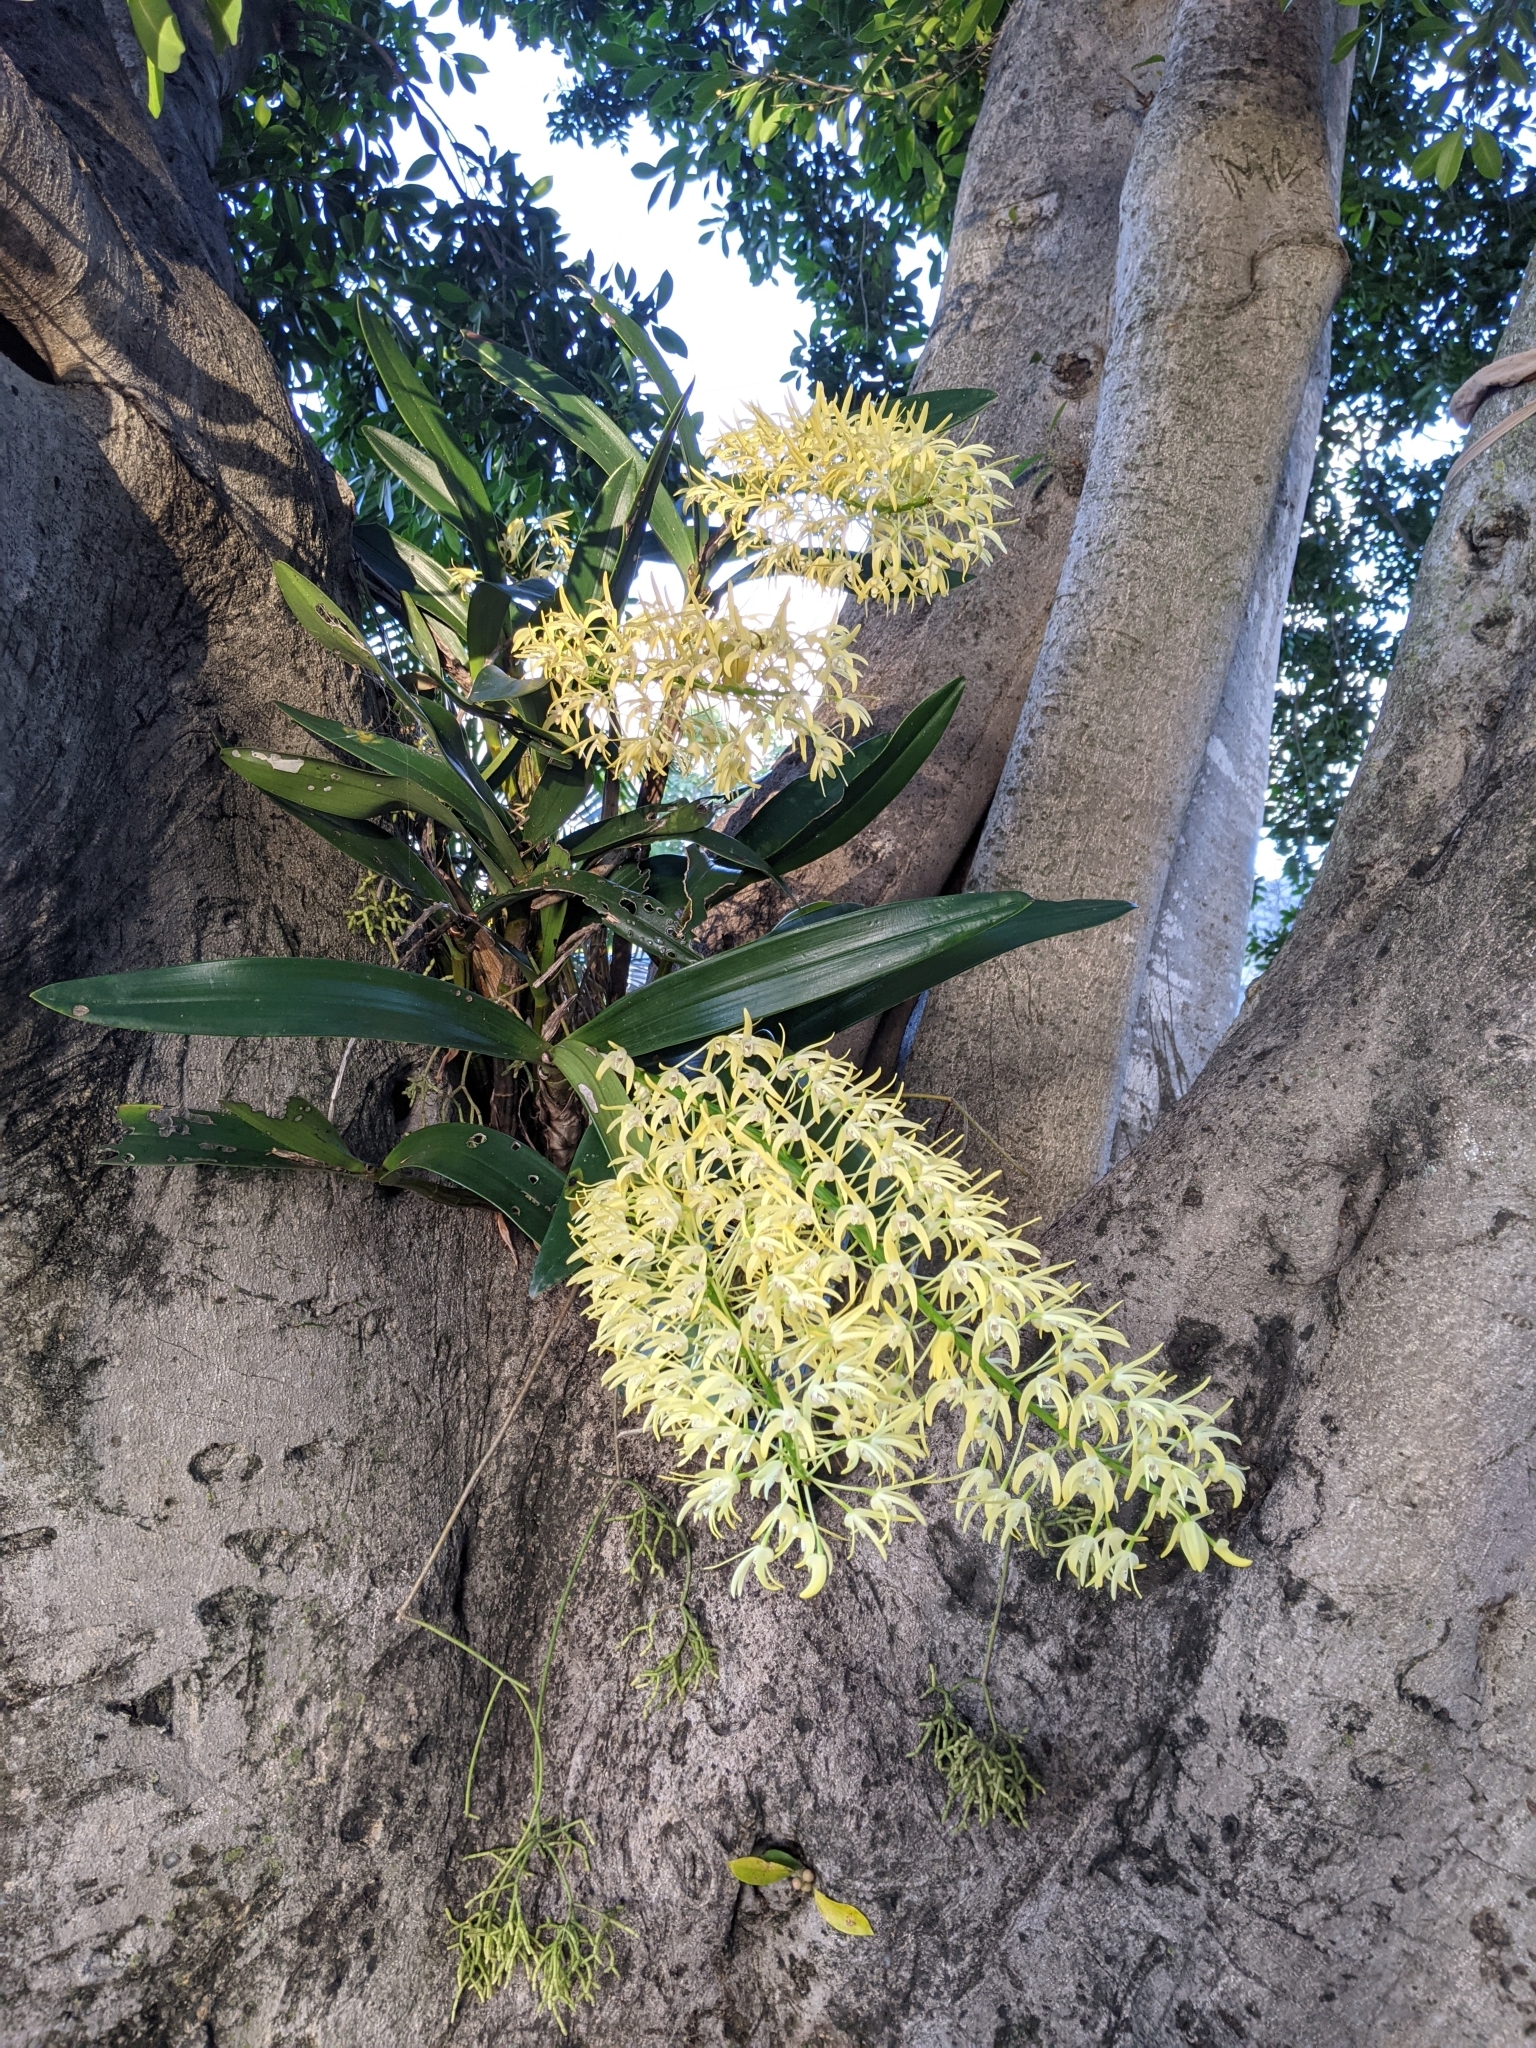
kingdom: Plantae
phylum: Tracheophyta
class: Liliopsida
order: Asparagales
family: Orchidaceae
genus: Dendrobium
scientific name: Dendrobium speciosum
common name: Rock-lily
